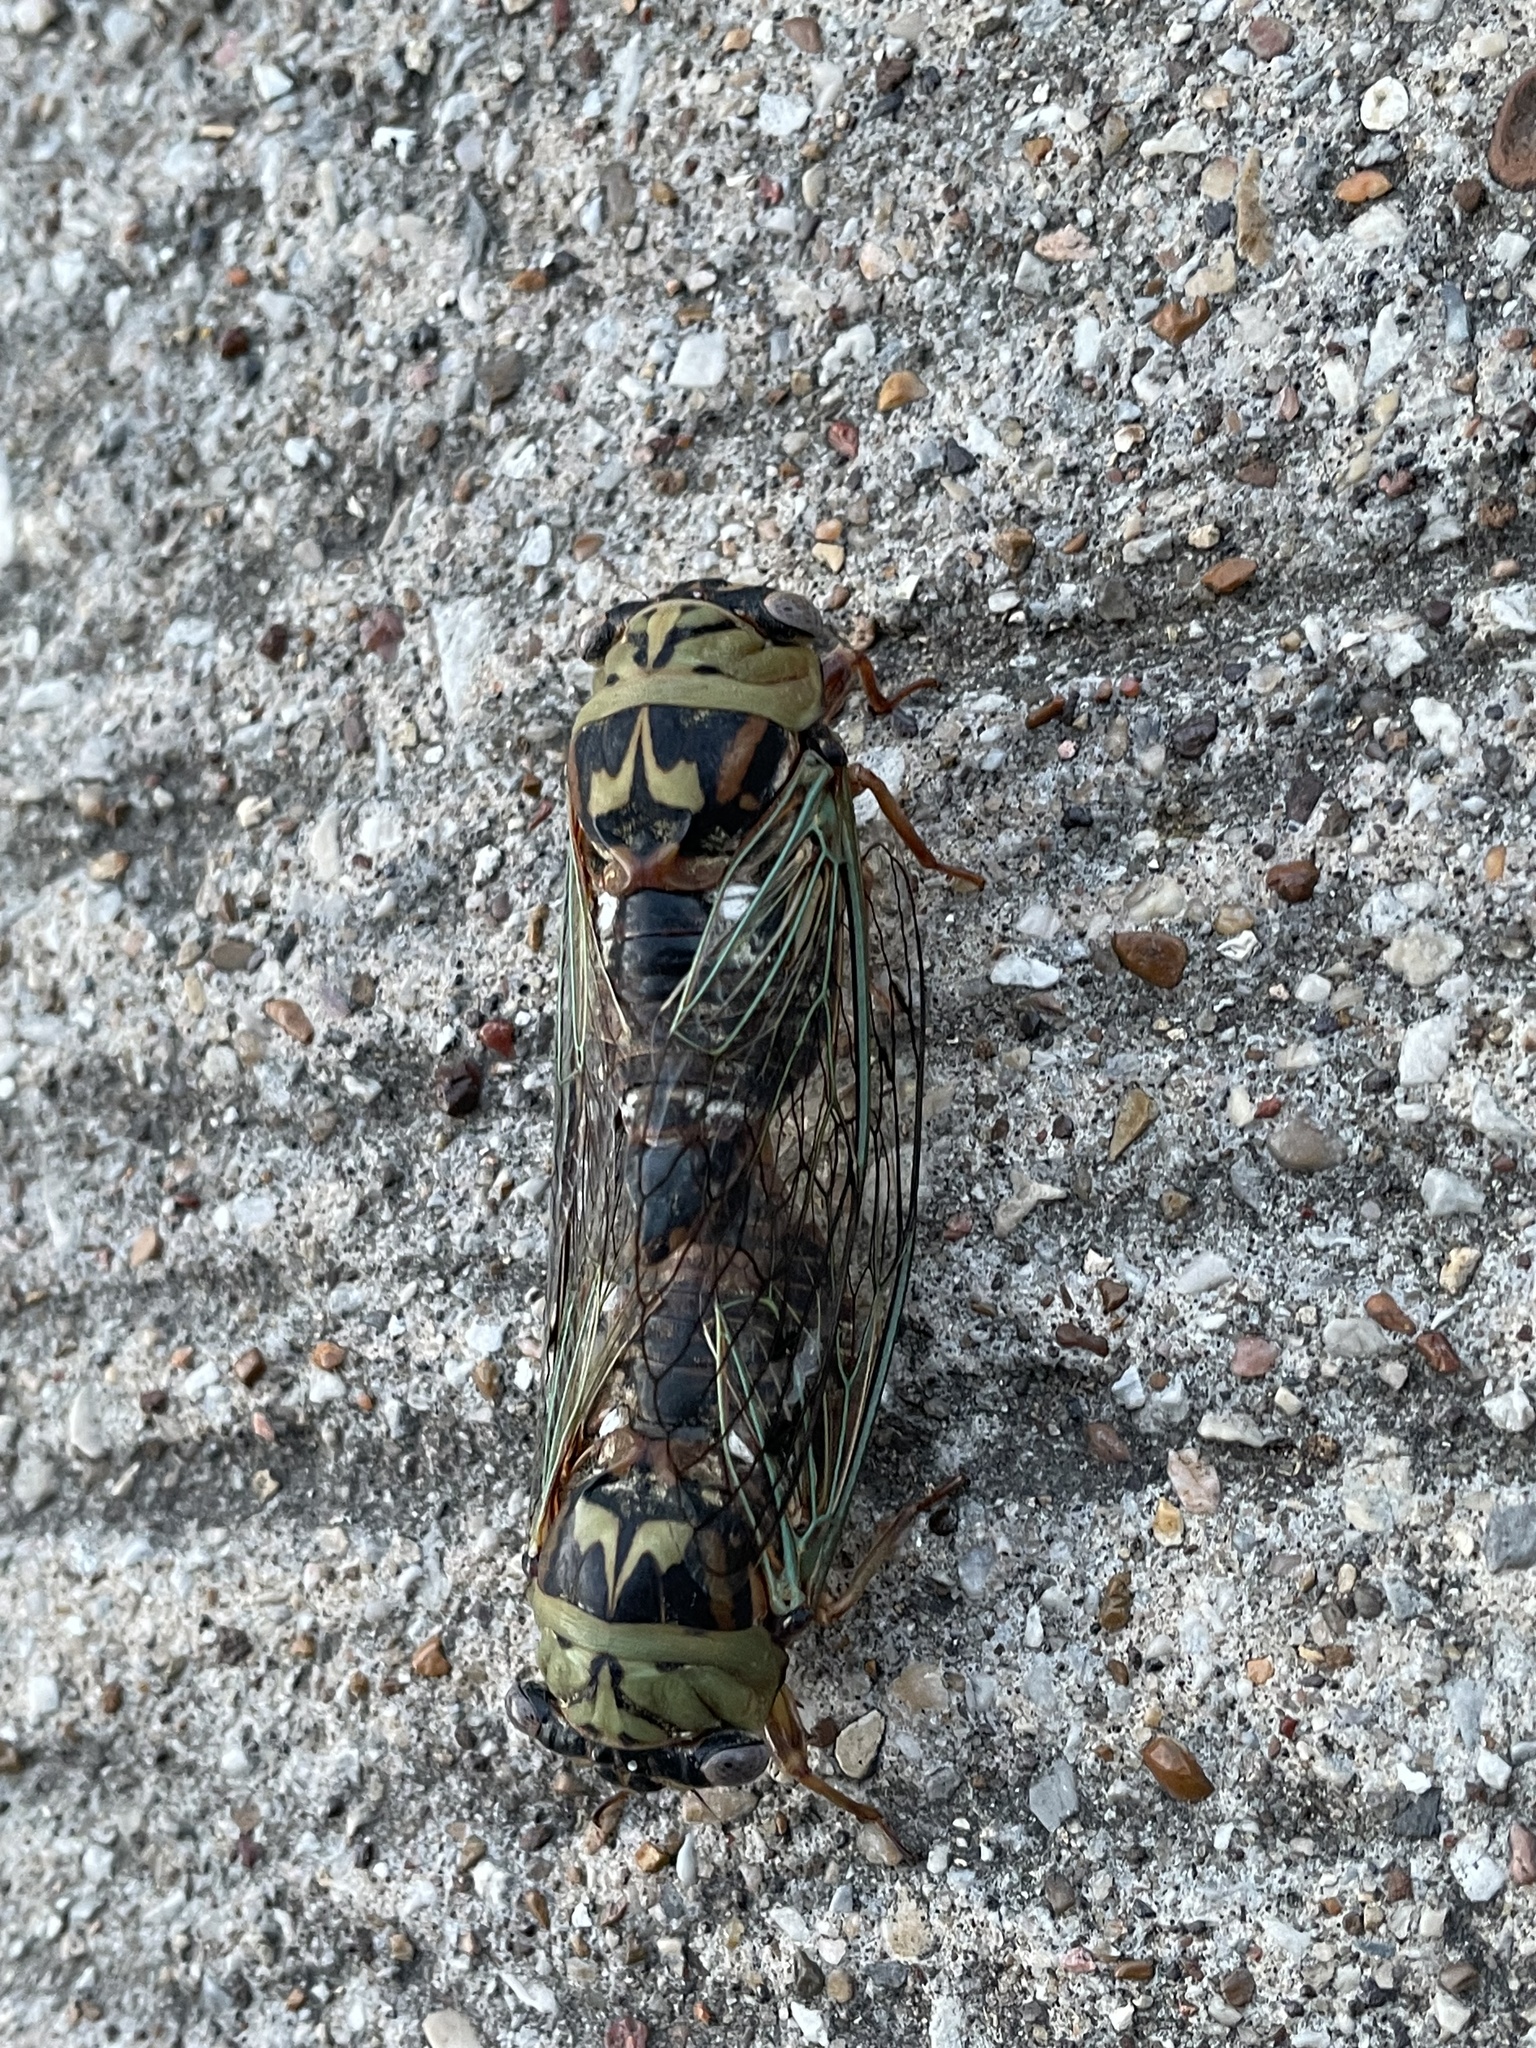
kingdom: Animalia
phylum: Arthropoda
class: Insecta
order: Hemiptera
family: Cicadidae
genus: Megatibicen
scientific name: Megatibicen resh
